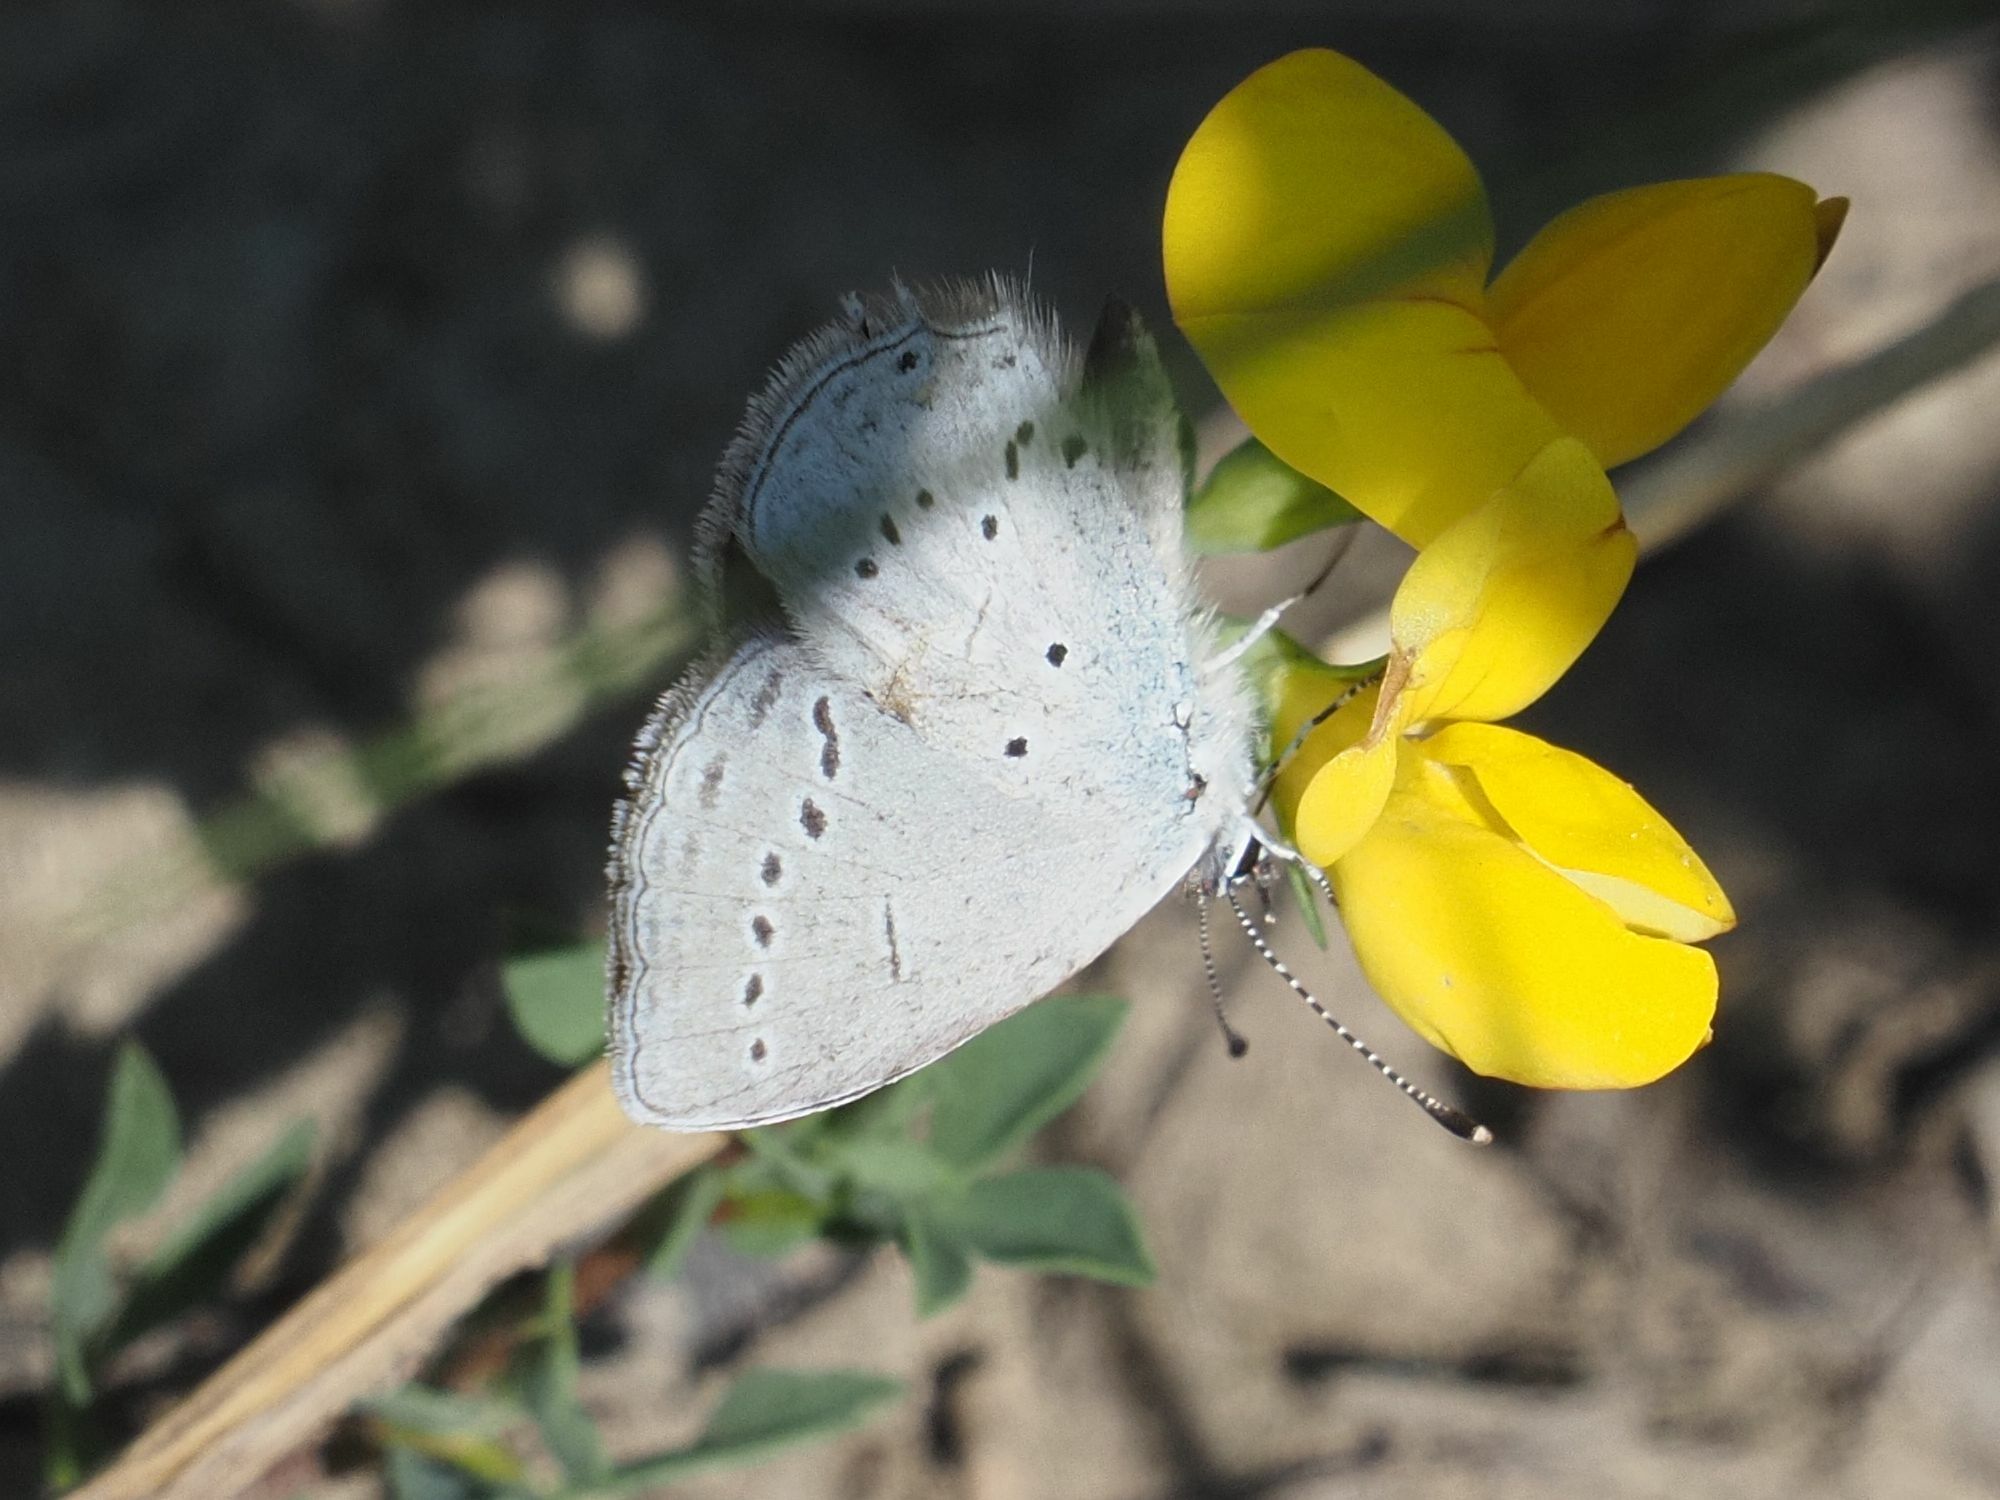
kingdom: Animalia
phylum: Arthropoda
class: Insecta
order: Lepidoptera
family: Lycaenidae
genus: Elkalyce
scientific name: Elkalyce decolorata
